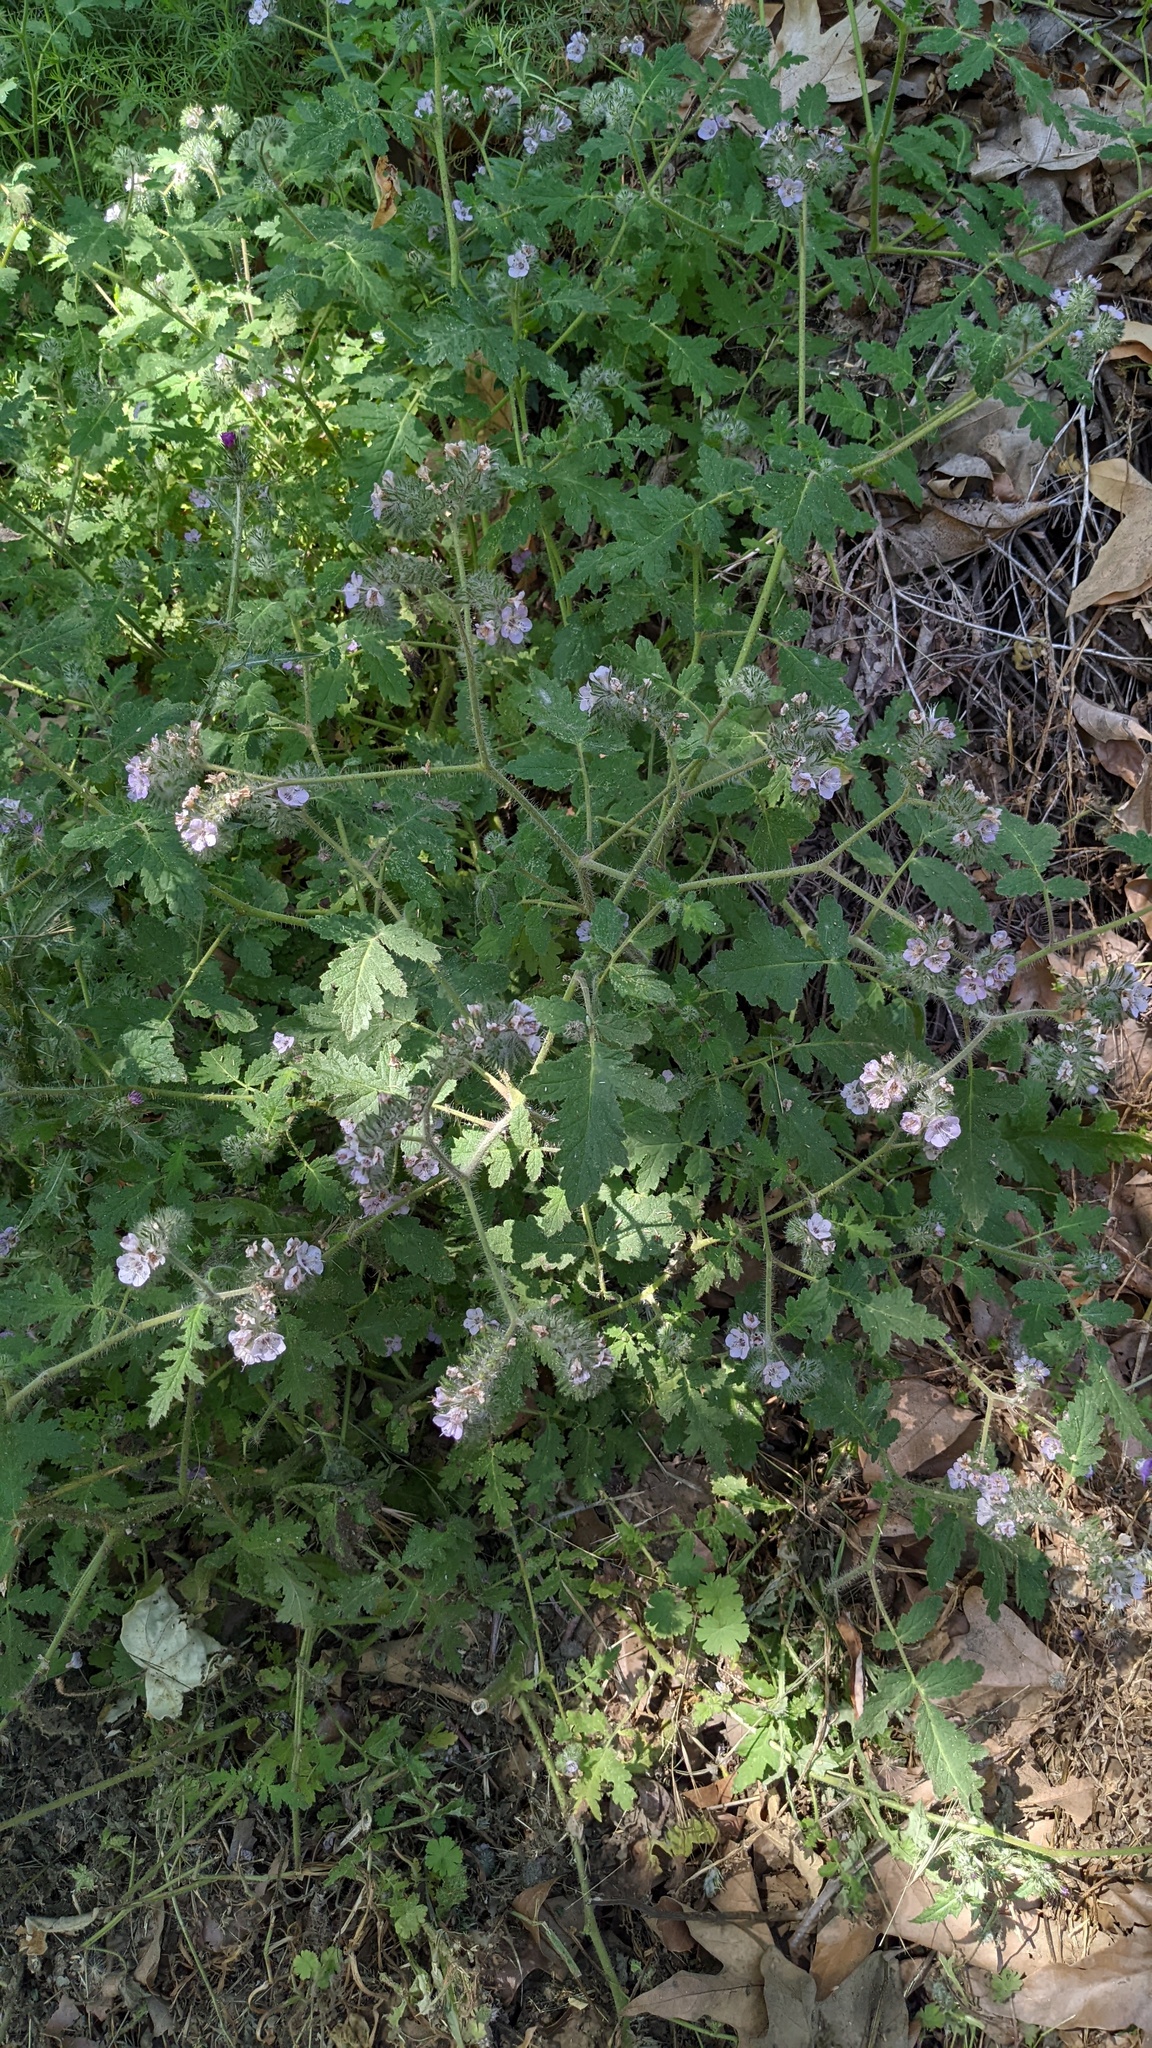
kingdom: Plantae
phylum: Tracheophyta
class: Magnoliopsida
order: Boraginales
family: Hydrophyllaceae
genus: Phacelia
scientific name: Phacelia cicutaria
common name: Caterpillar phacelia
